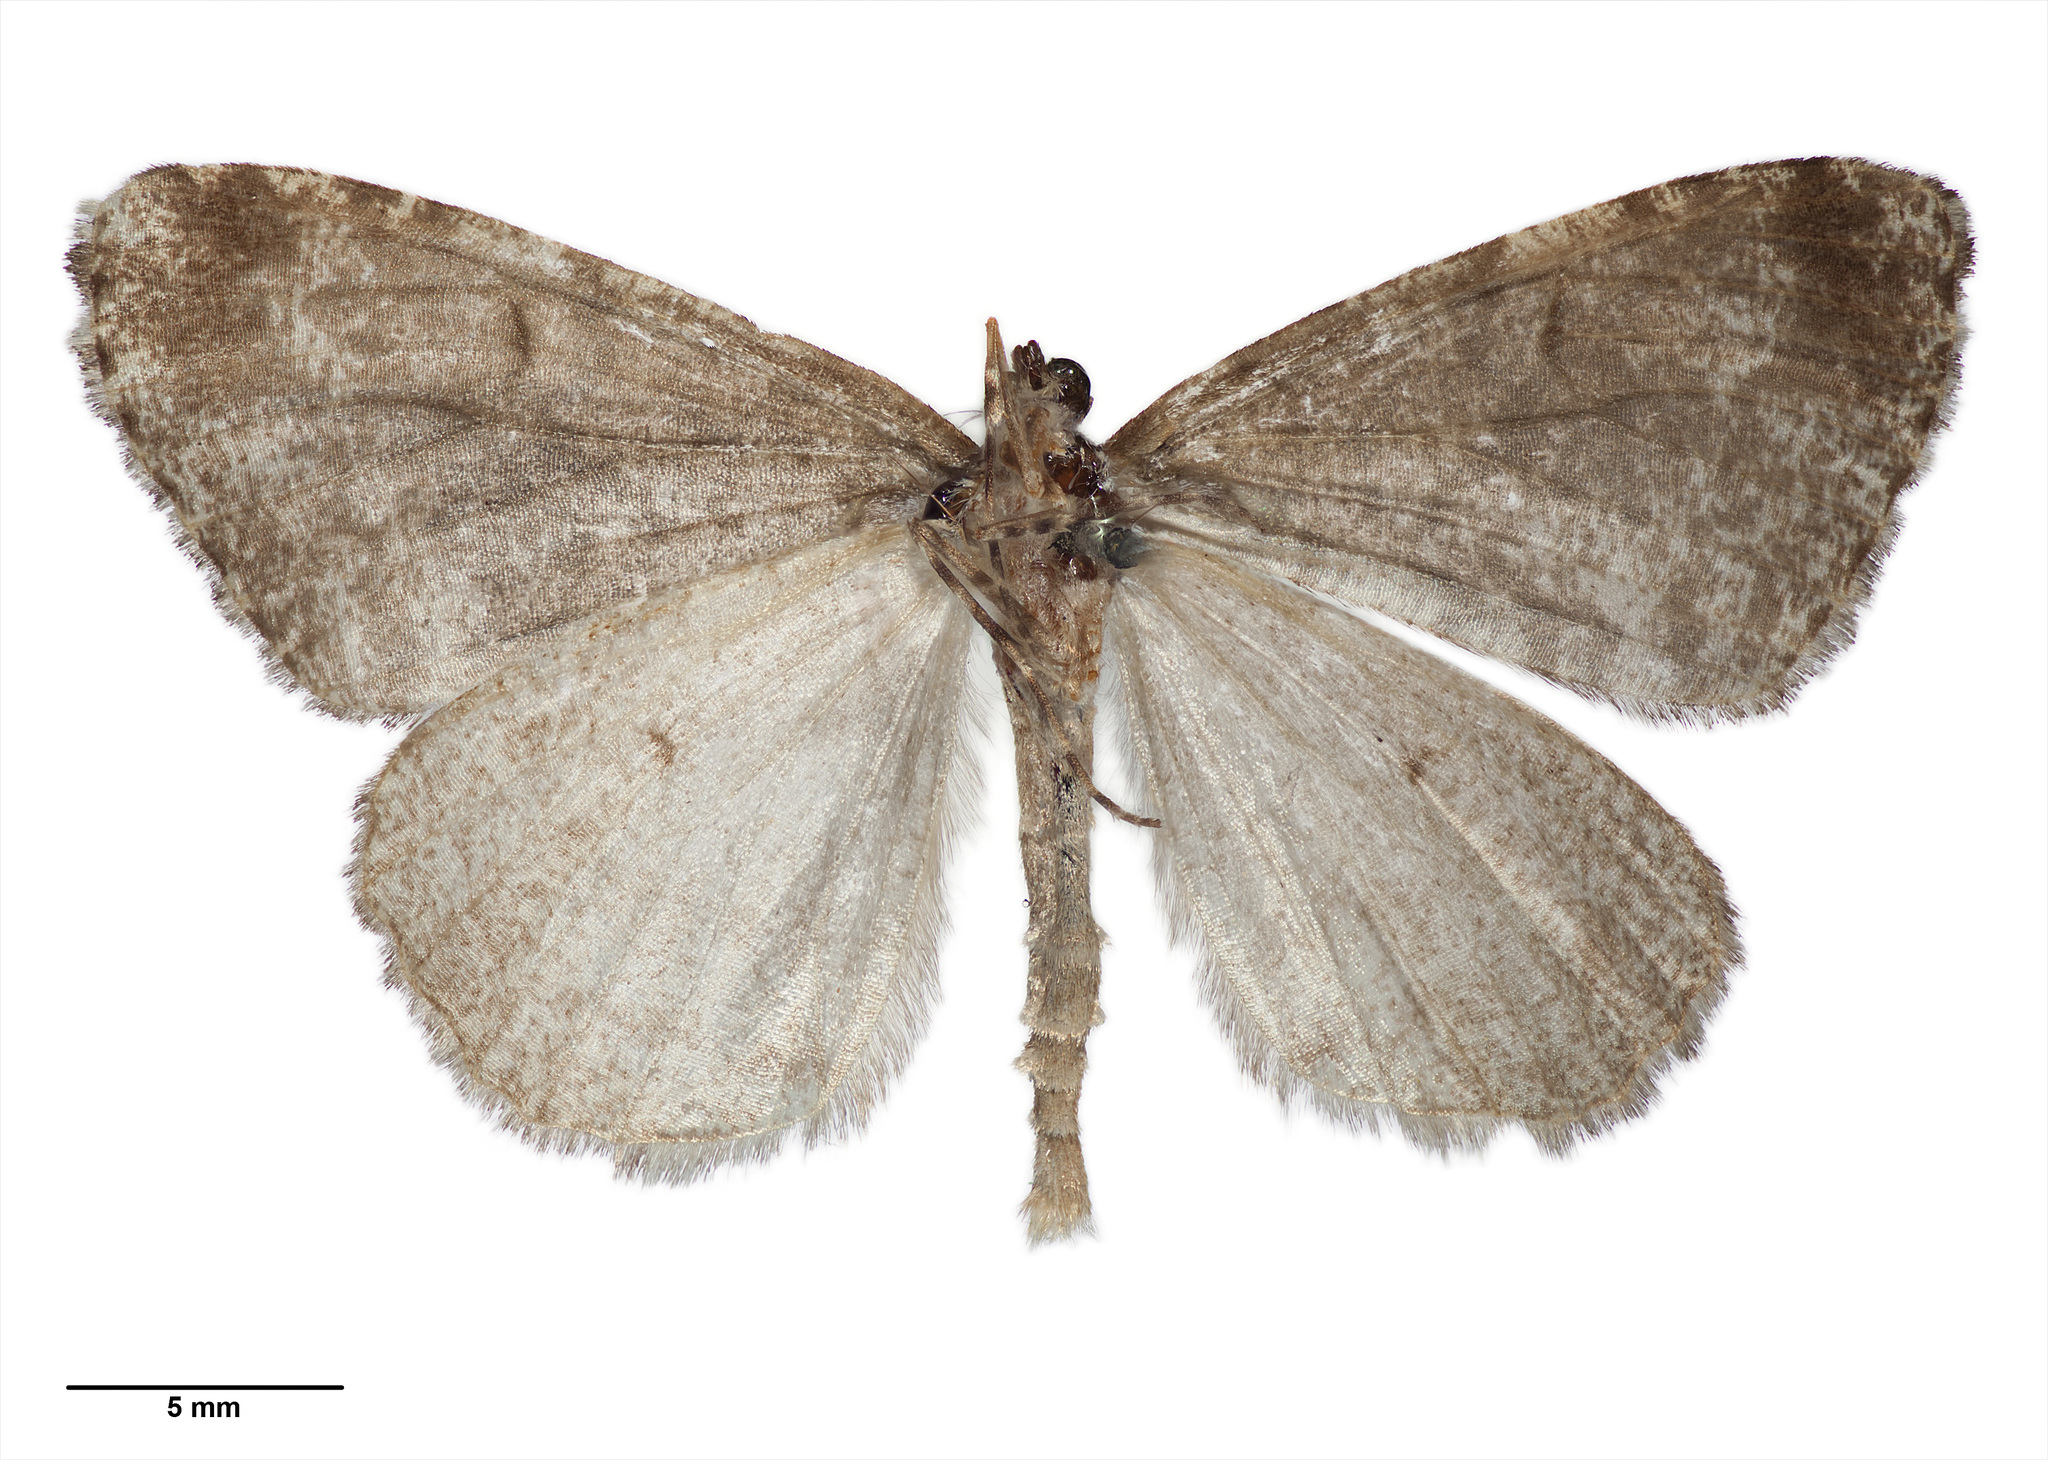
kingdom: Animalia
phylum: Arthropoda
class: Insecta
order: Lepidoptera
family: Geometridae
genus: Pseudocoremia
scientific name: Pseudocoremia monacha
